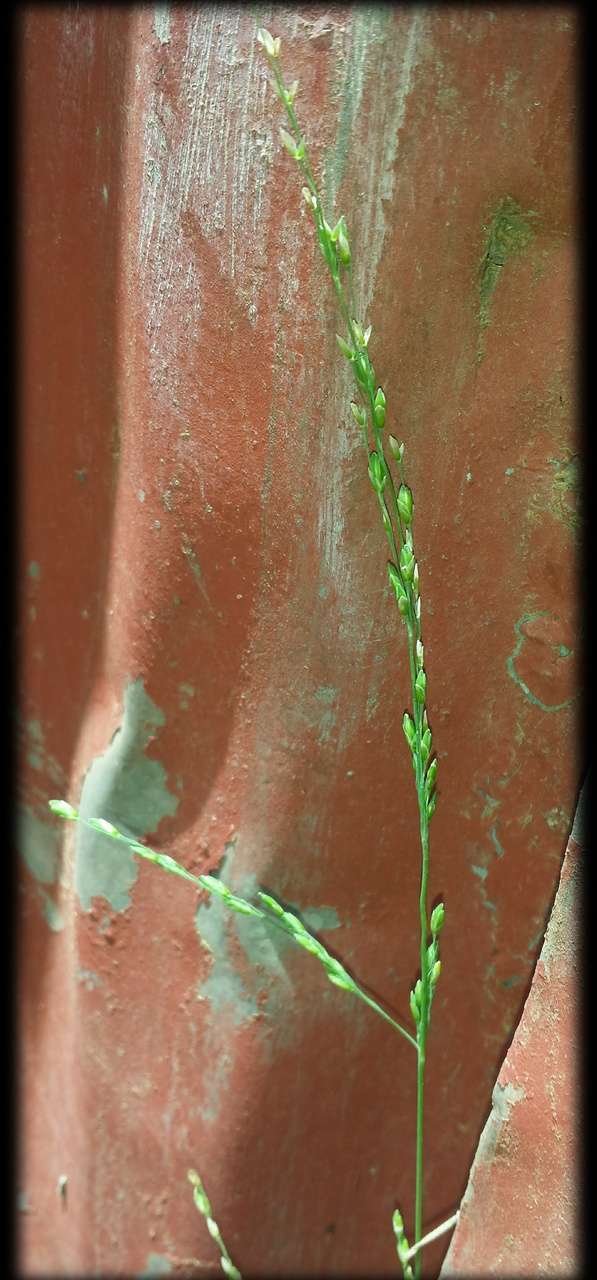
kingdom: Plantae
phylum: Tracheophyta
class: Liliopsida
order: Poales
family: Poaceae
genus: Ehrharta
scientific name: Ehrharta erecta
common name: Panic veldtgrass
